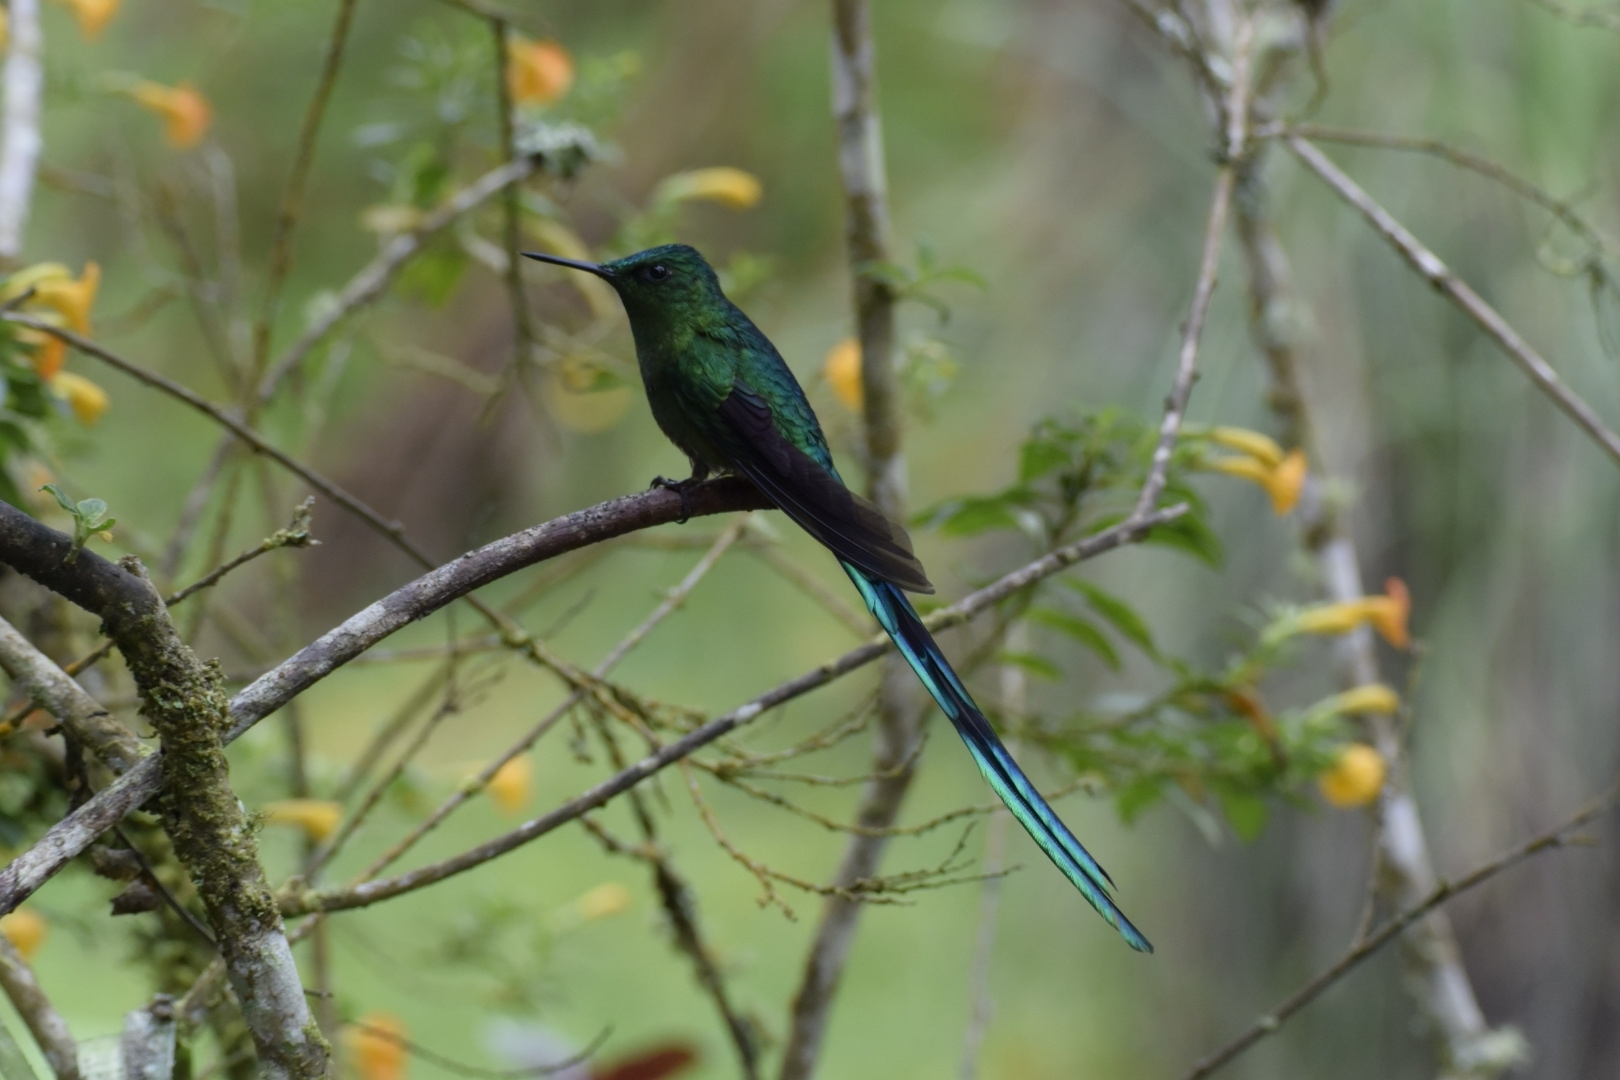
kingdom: Animalia
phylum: Chordata
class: Aves
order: Apodiformes
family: Trochilidae
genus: Aglaiocercus
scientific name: Aglaiocercus kingii
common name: Long-tailed sylph
